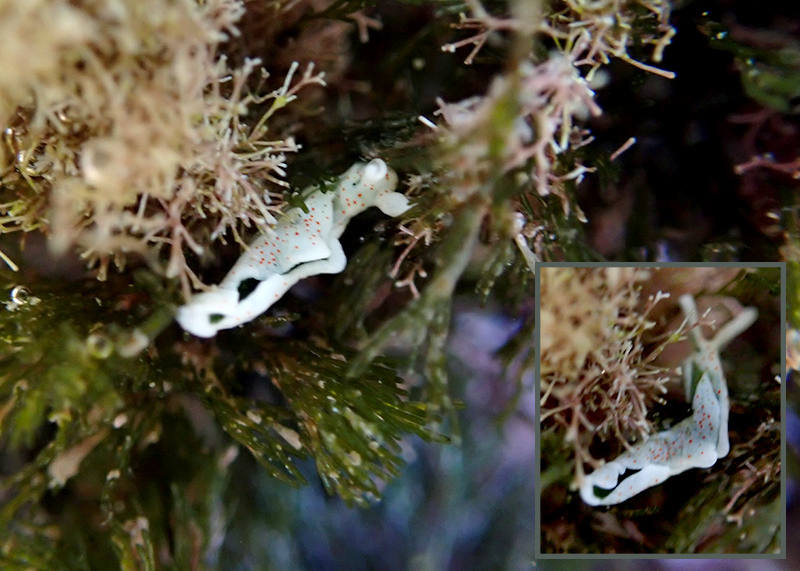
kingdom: Animalia
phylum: Mollusca
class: Gastropoda
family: Plakobranchidae
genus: Elysia
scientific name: Elysia timida
